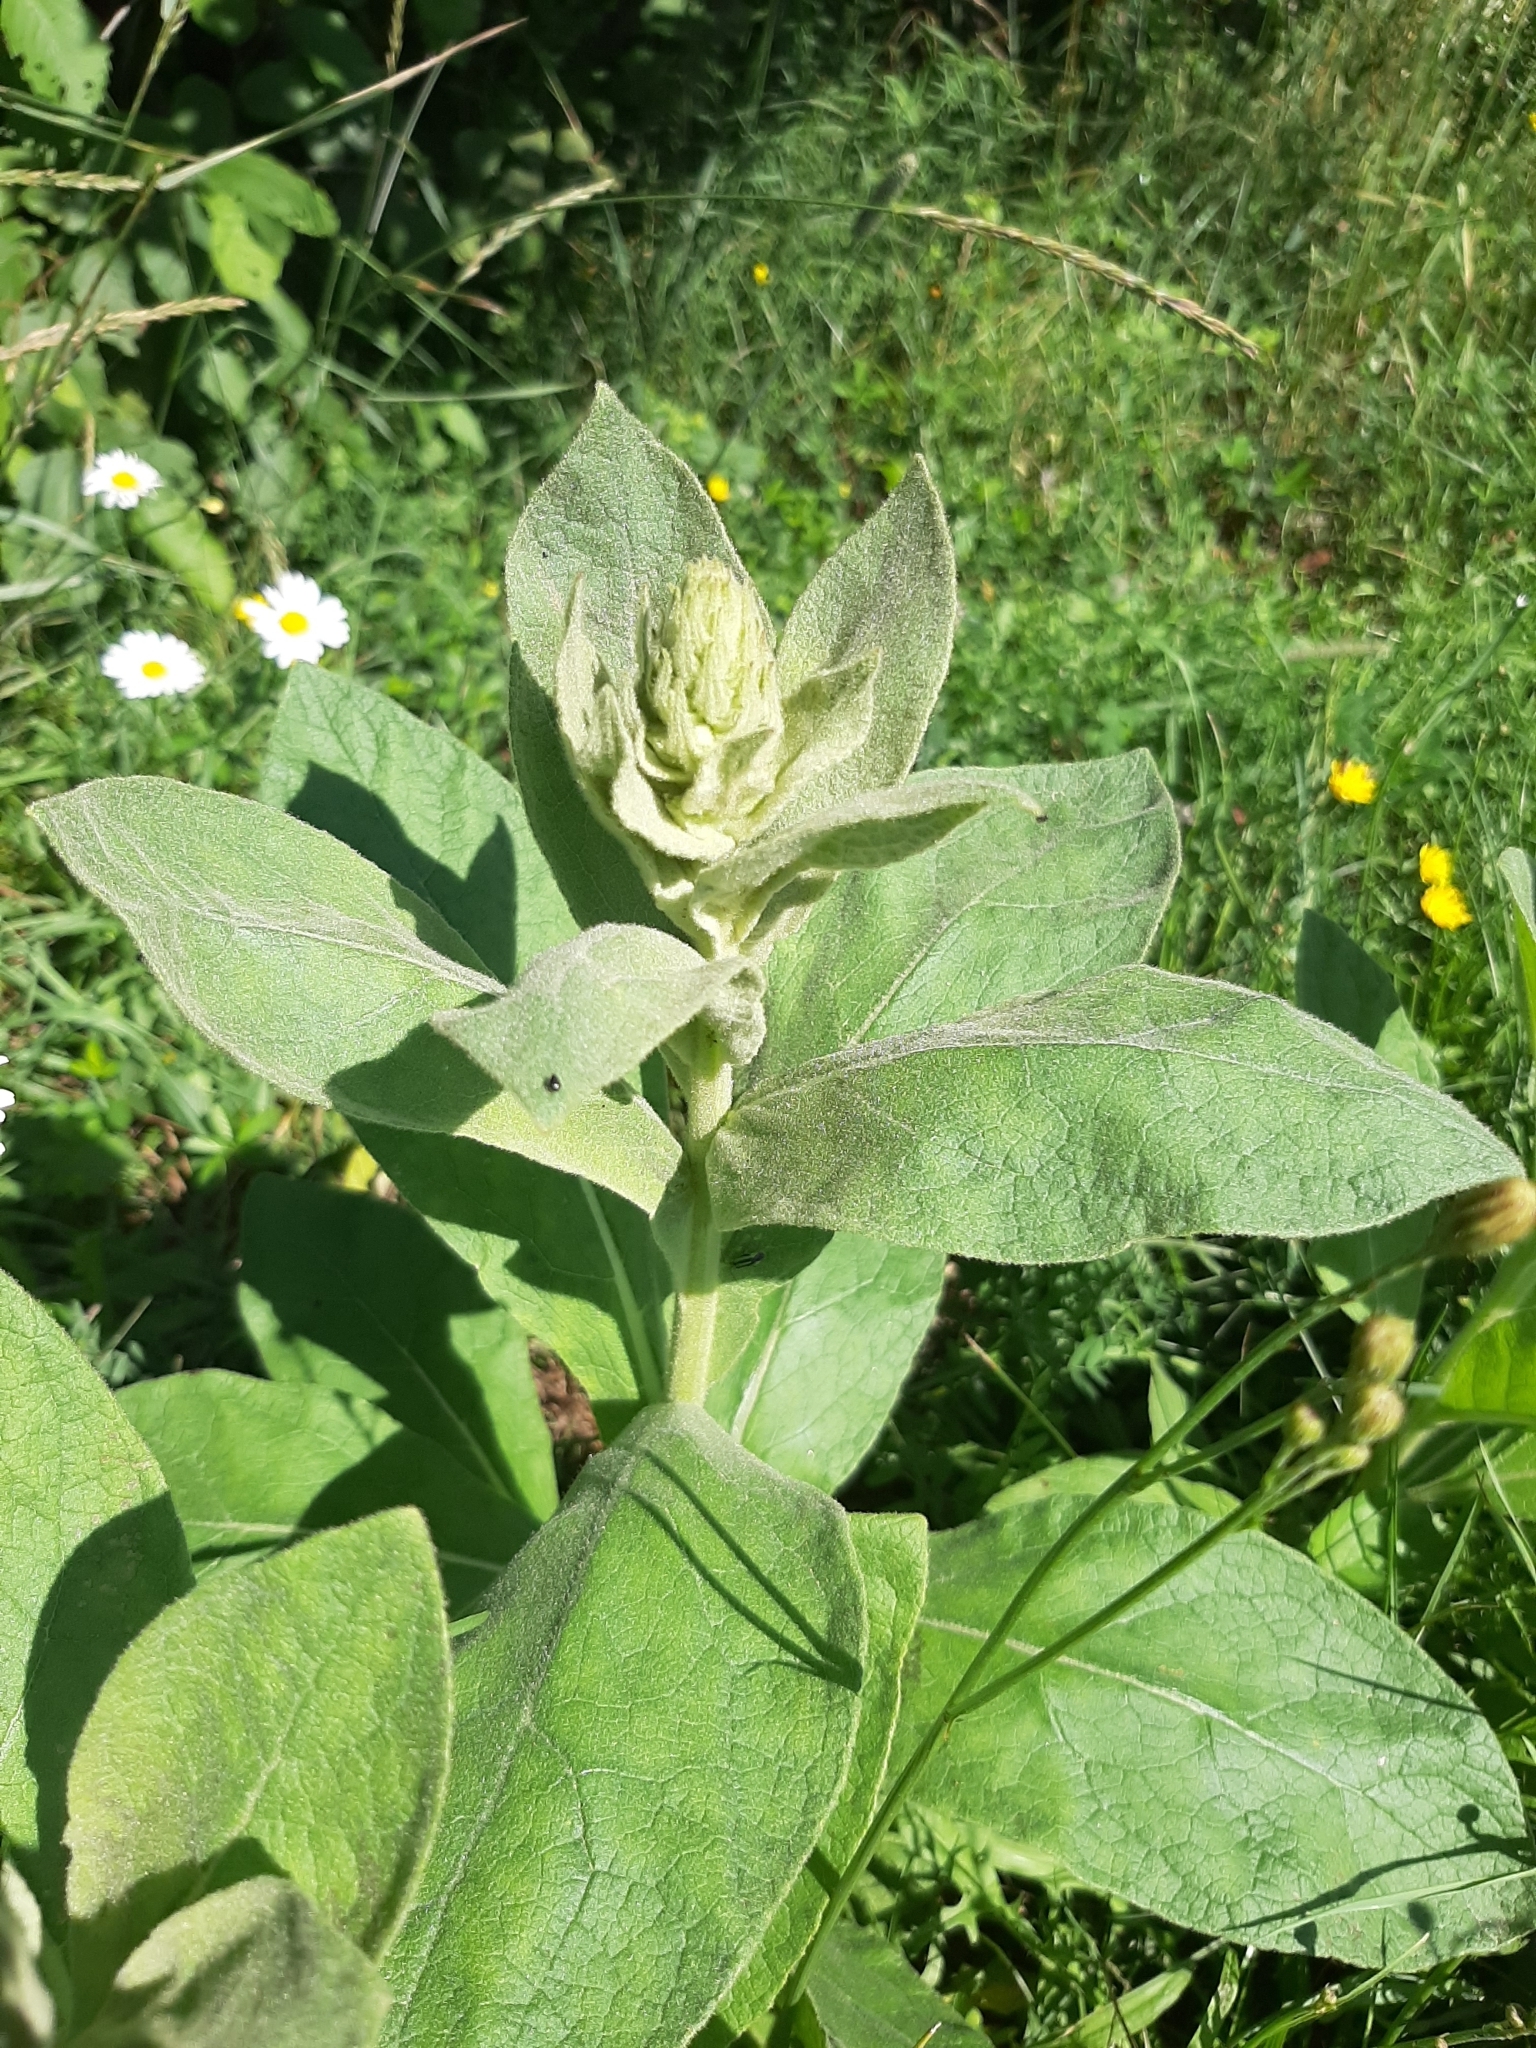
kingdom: Plantae
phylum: Tracheophyta
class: Magnoliopsida
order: Lamiales
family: Scrophulariaceae
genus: Verbascum
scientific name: Verbascum thapsus
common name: Common mullein
